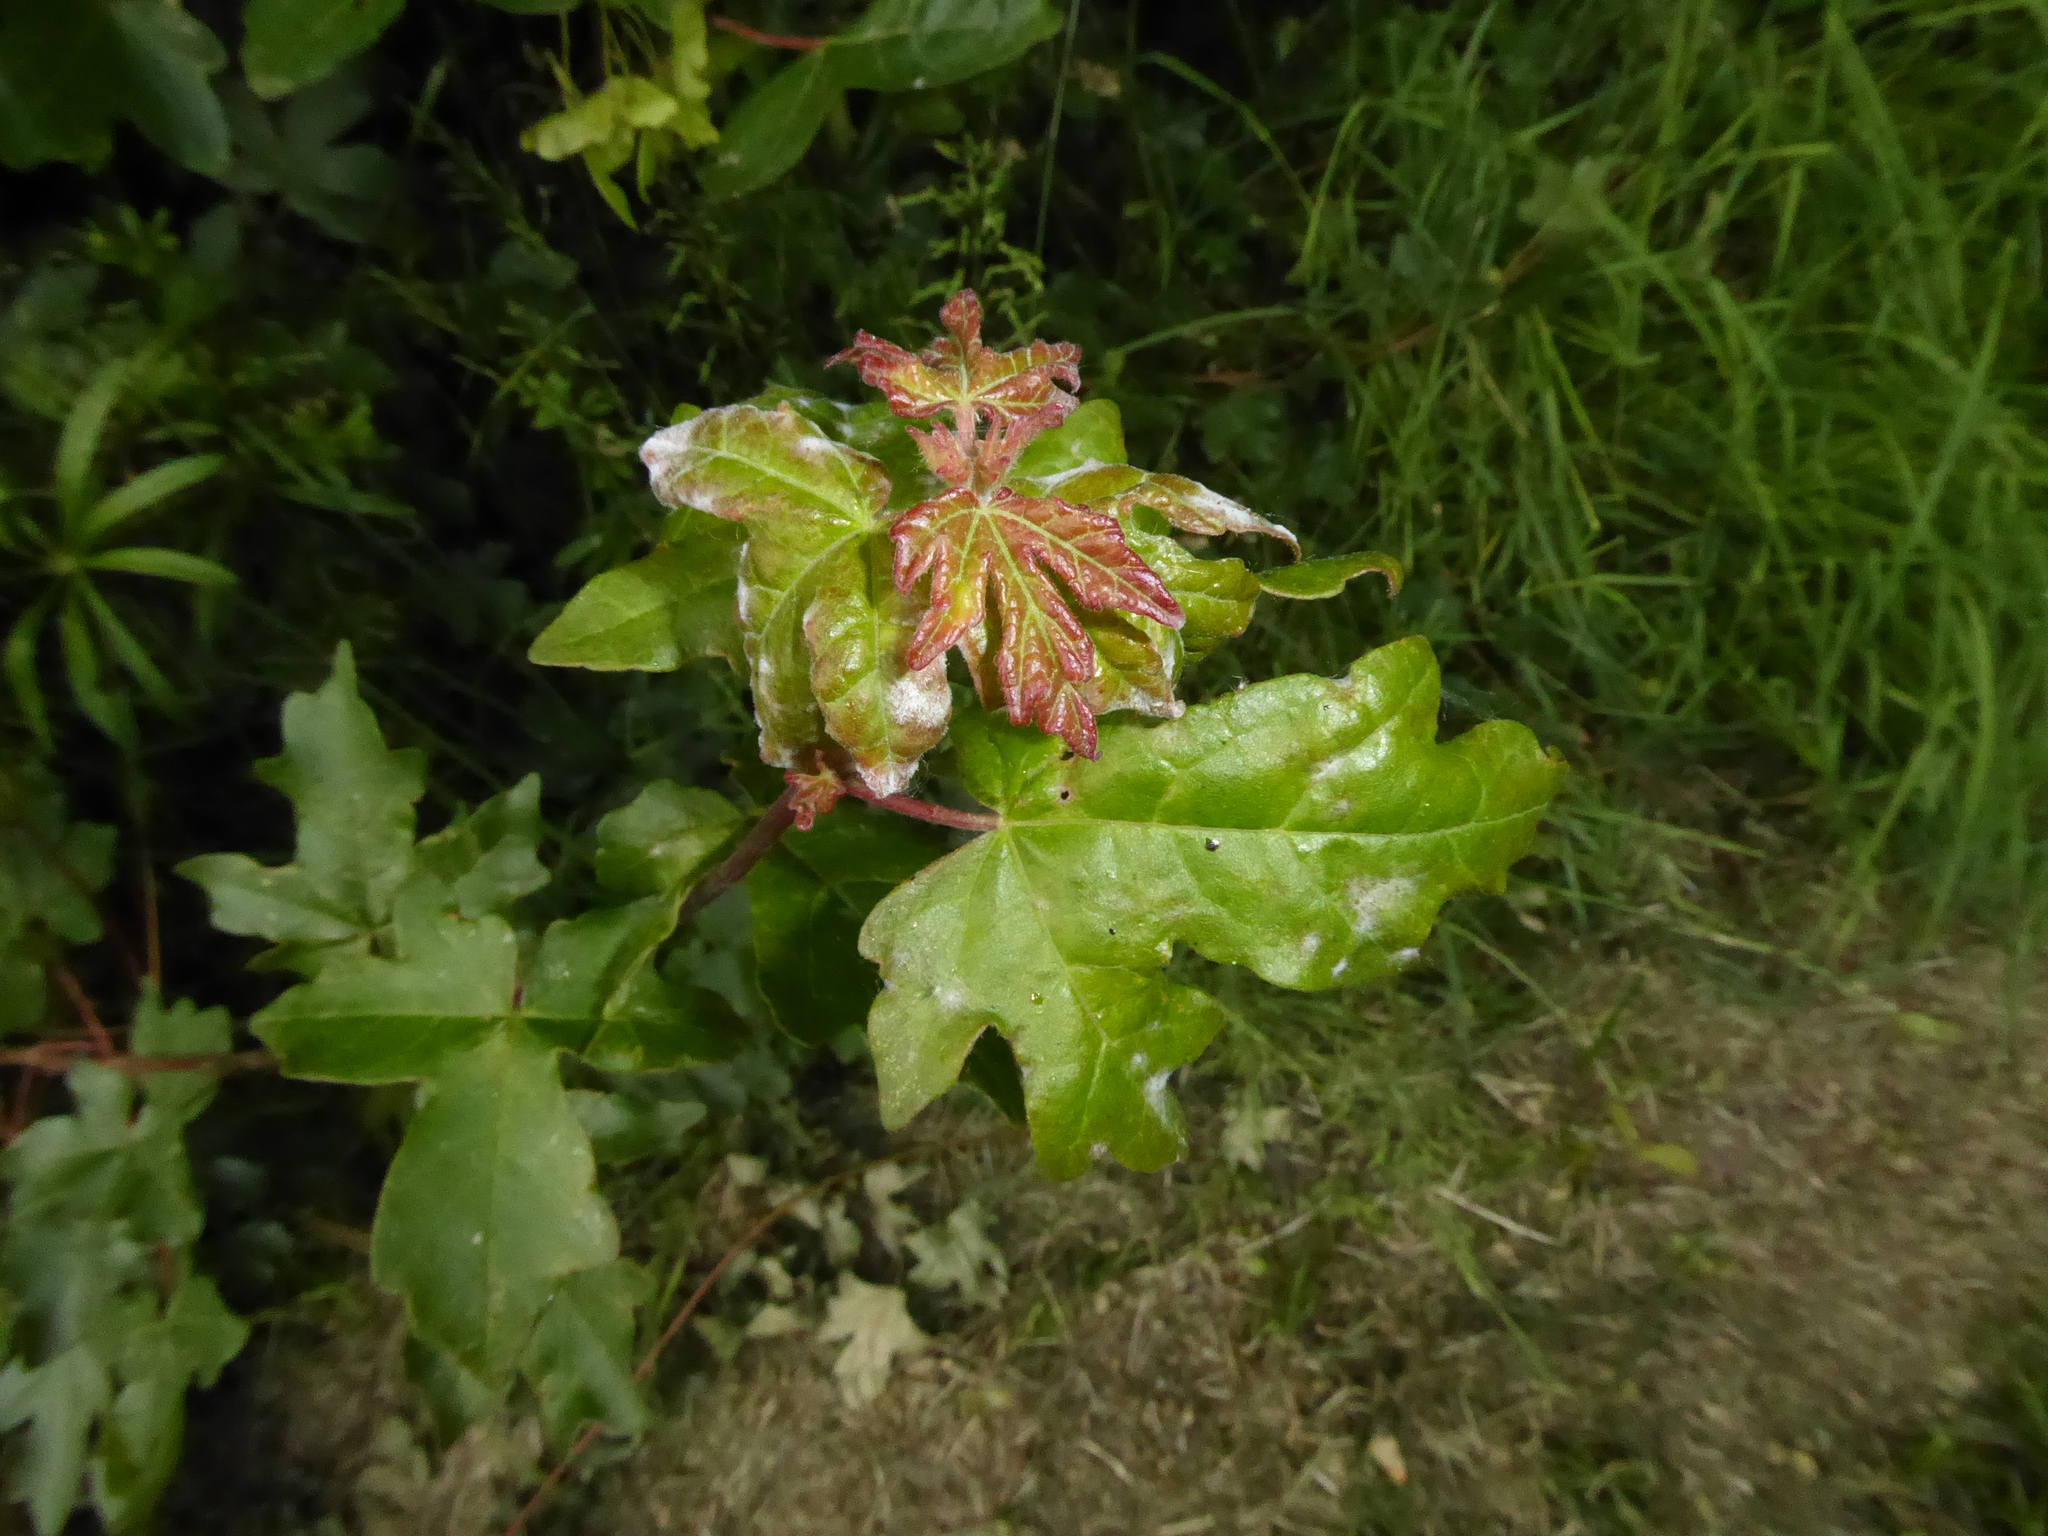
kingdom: Plantae
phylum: Tracheophyta
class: Magnoliopsida
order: Sapindales
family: Sapindaceae
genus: Acer
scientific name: Acer campestre
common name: Field maple
